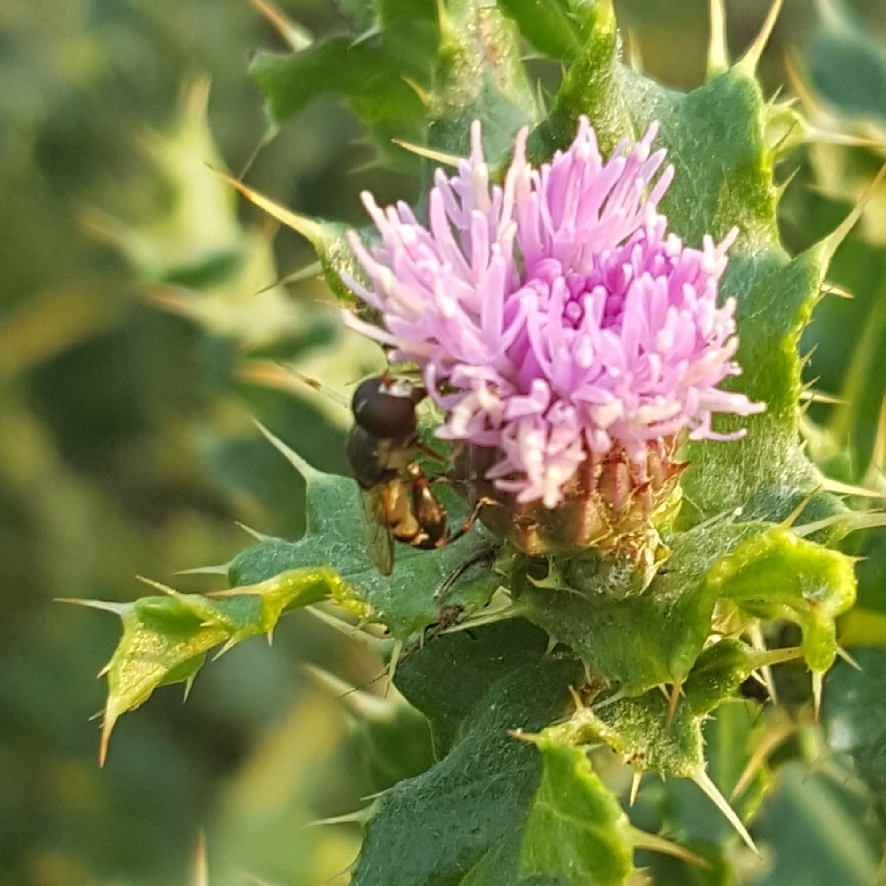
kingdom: Animalia
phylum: Arthropoda
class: Insecta
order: Diptera
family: Syrphidae
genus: Syritta
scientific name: Syritta pipiens
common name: Hover fly
